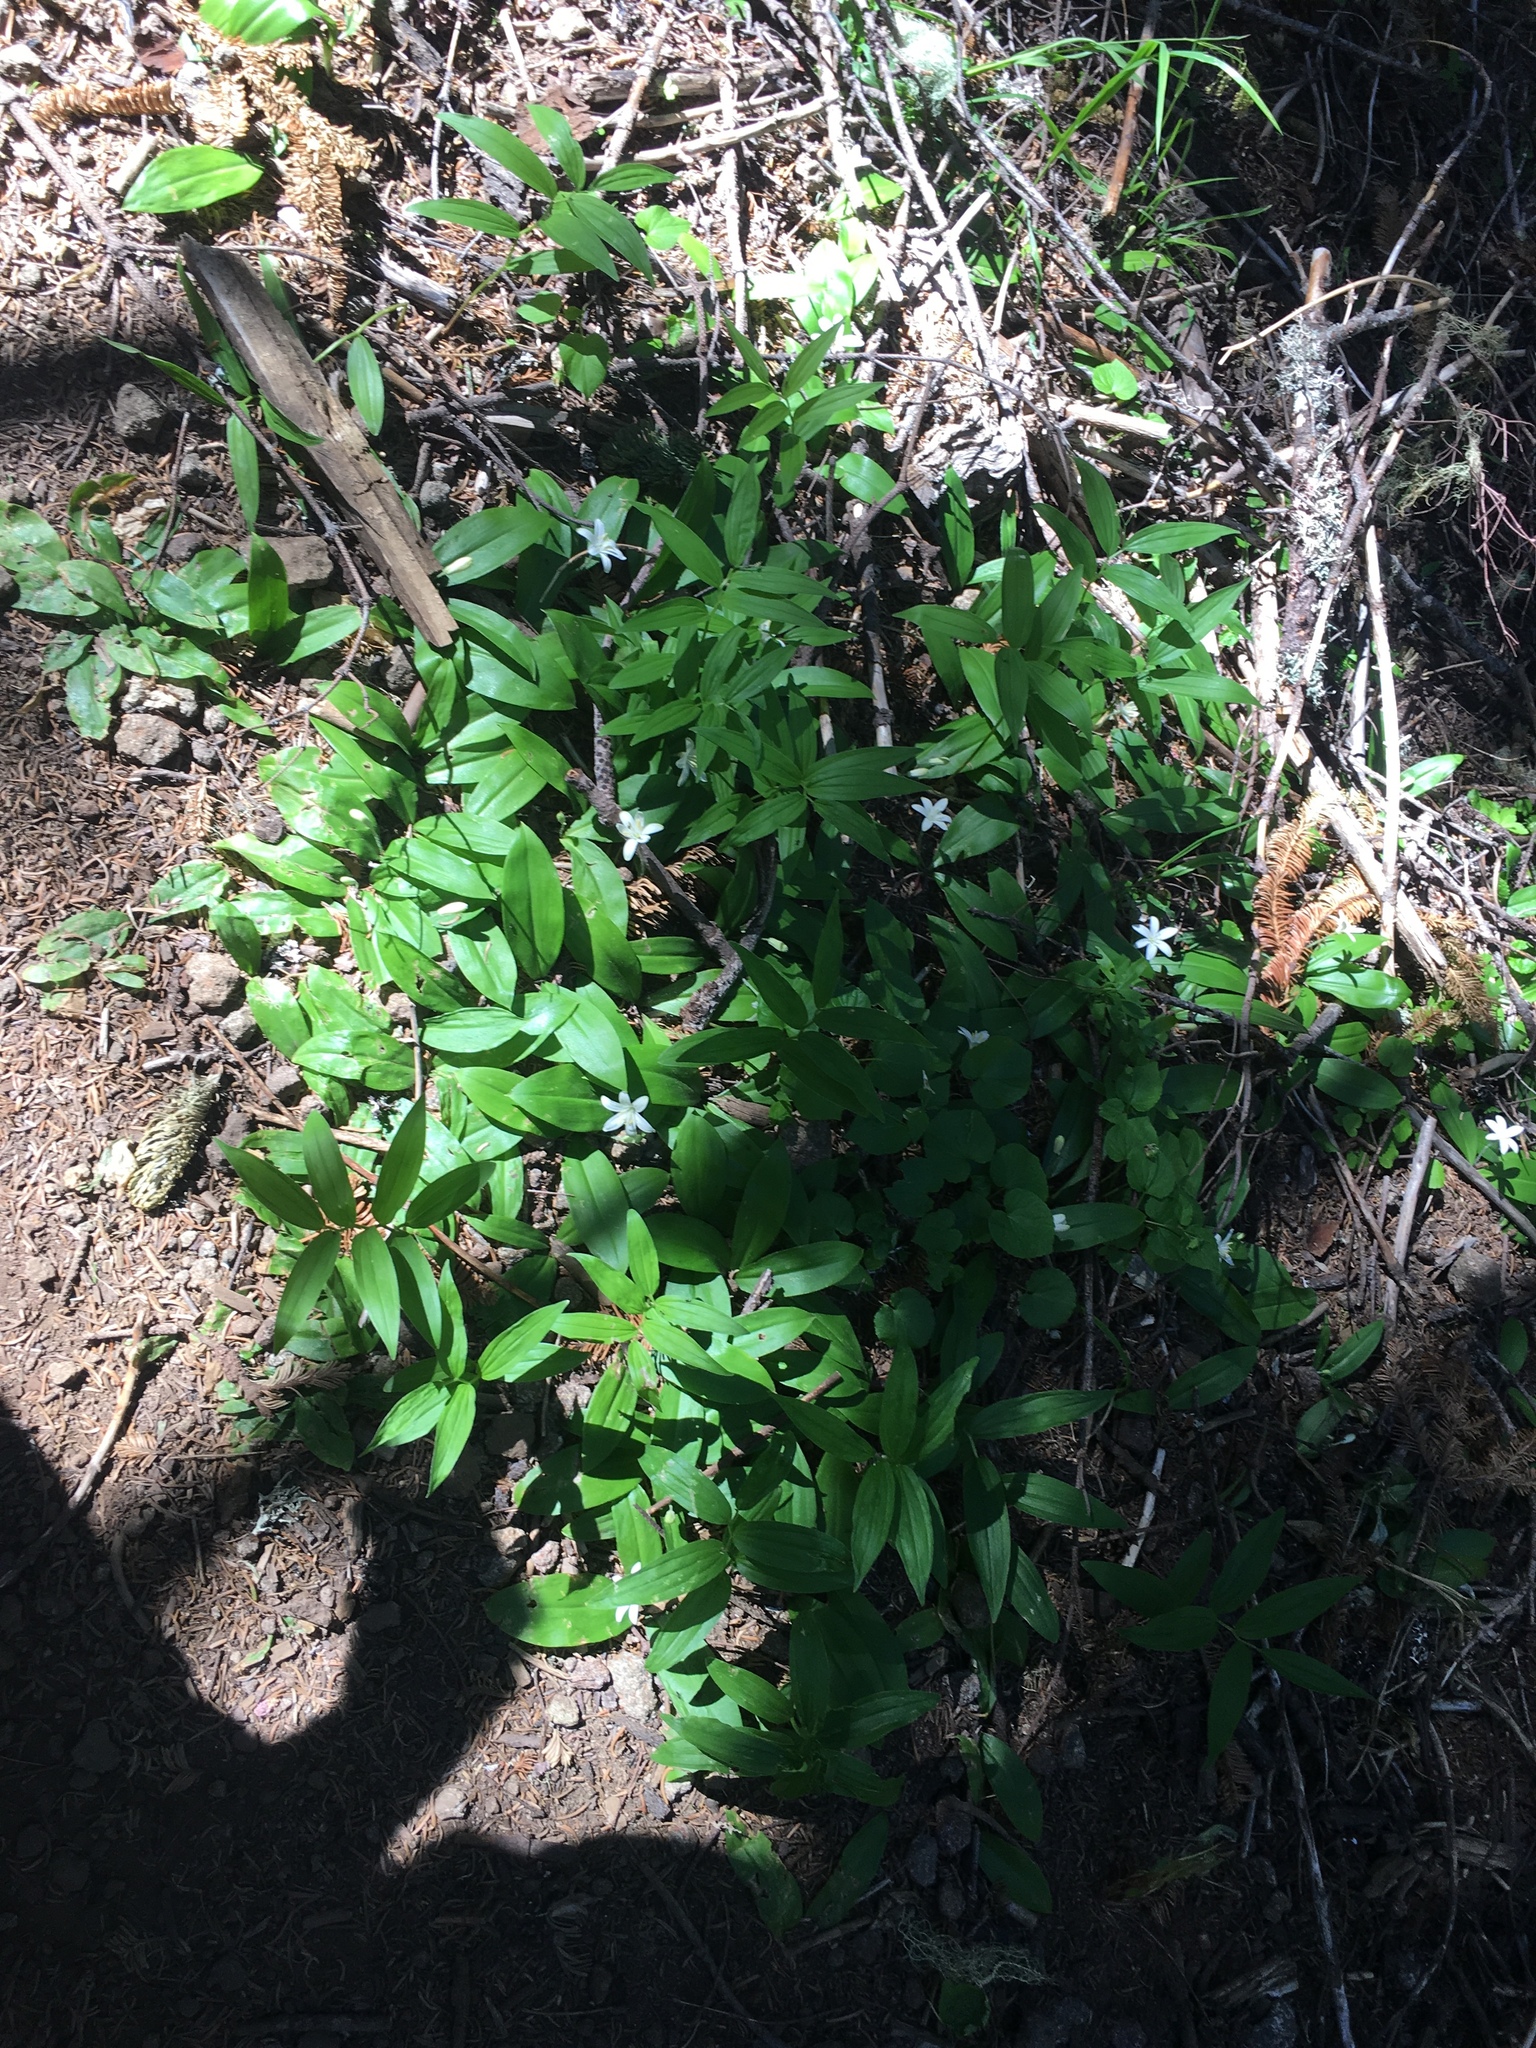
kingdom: Plantae
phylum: Tracheophyta
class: Liliopsida
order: Liliales
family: Liliaceae
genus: Clintonia
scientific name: Clintonia uniflora
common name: Queen's cup
